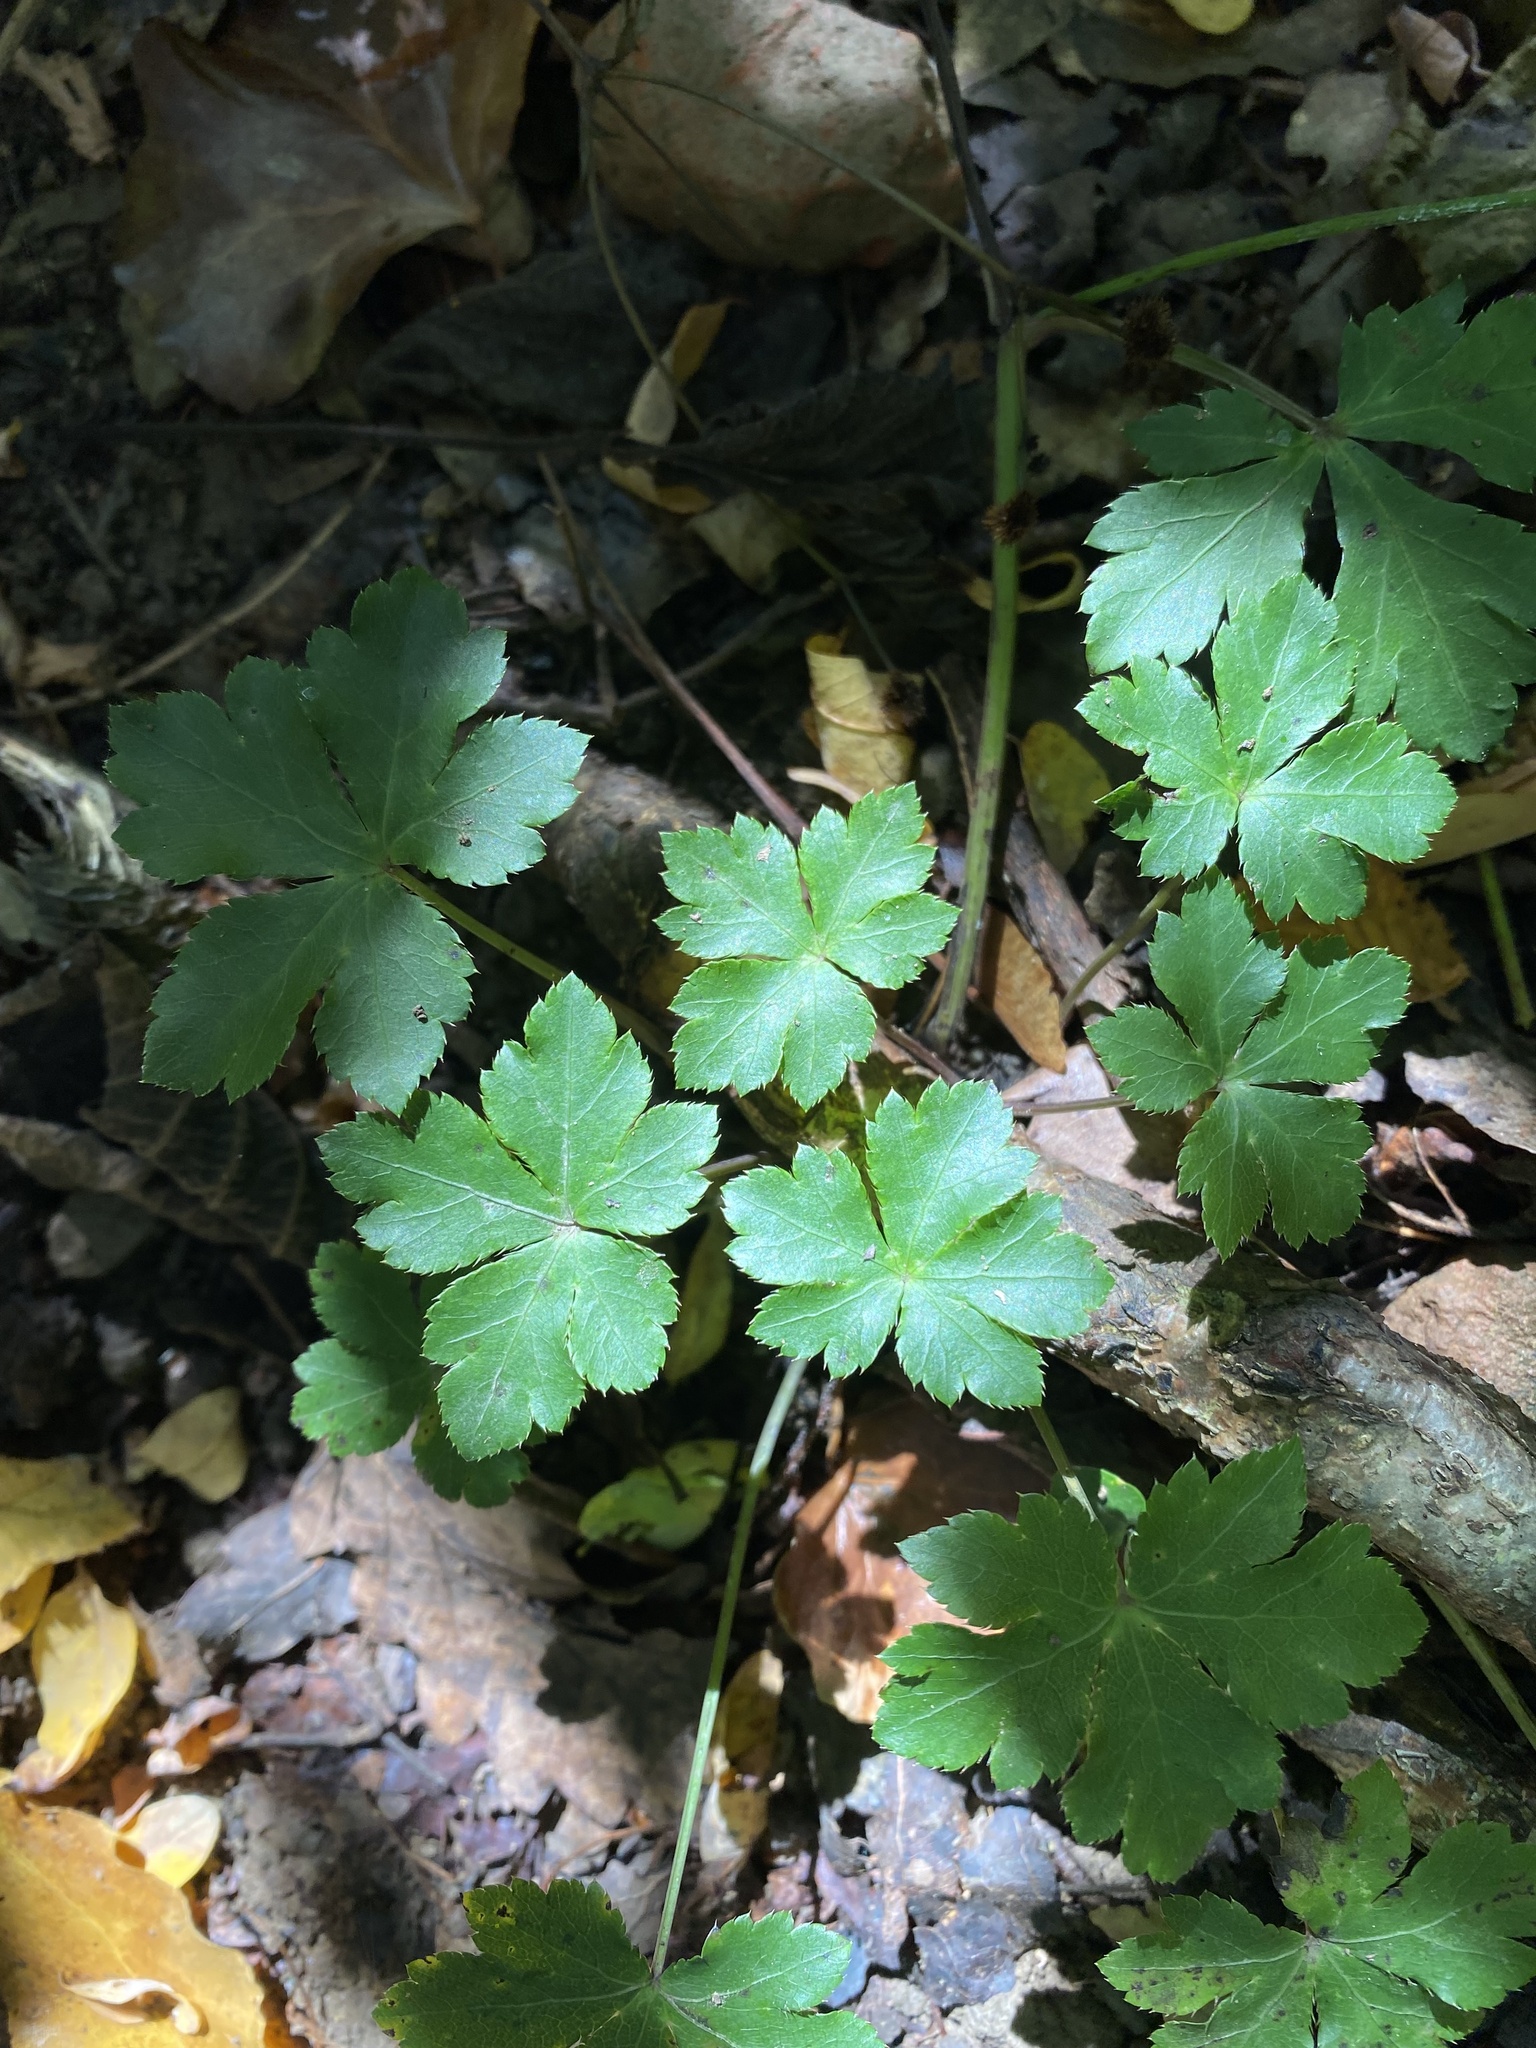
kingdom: Plantae
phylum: Tracheophyta
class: Magnoliopsida
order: Apiales
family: Apiaceae
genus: Sanicula
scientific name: Sanicula europaea
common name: Sanicle
